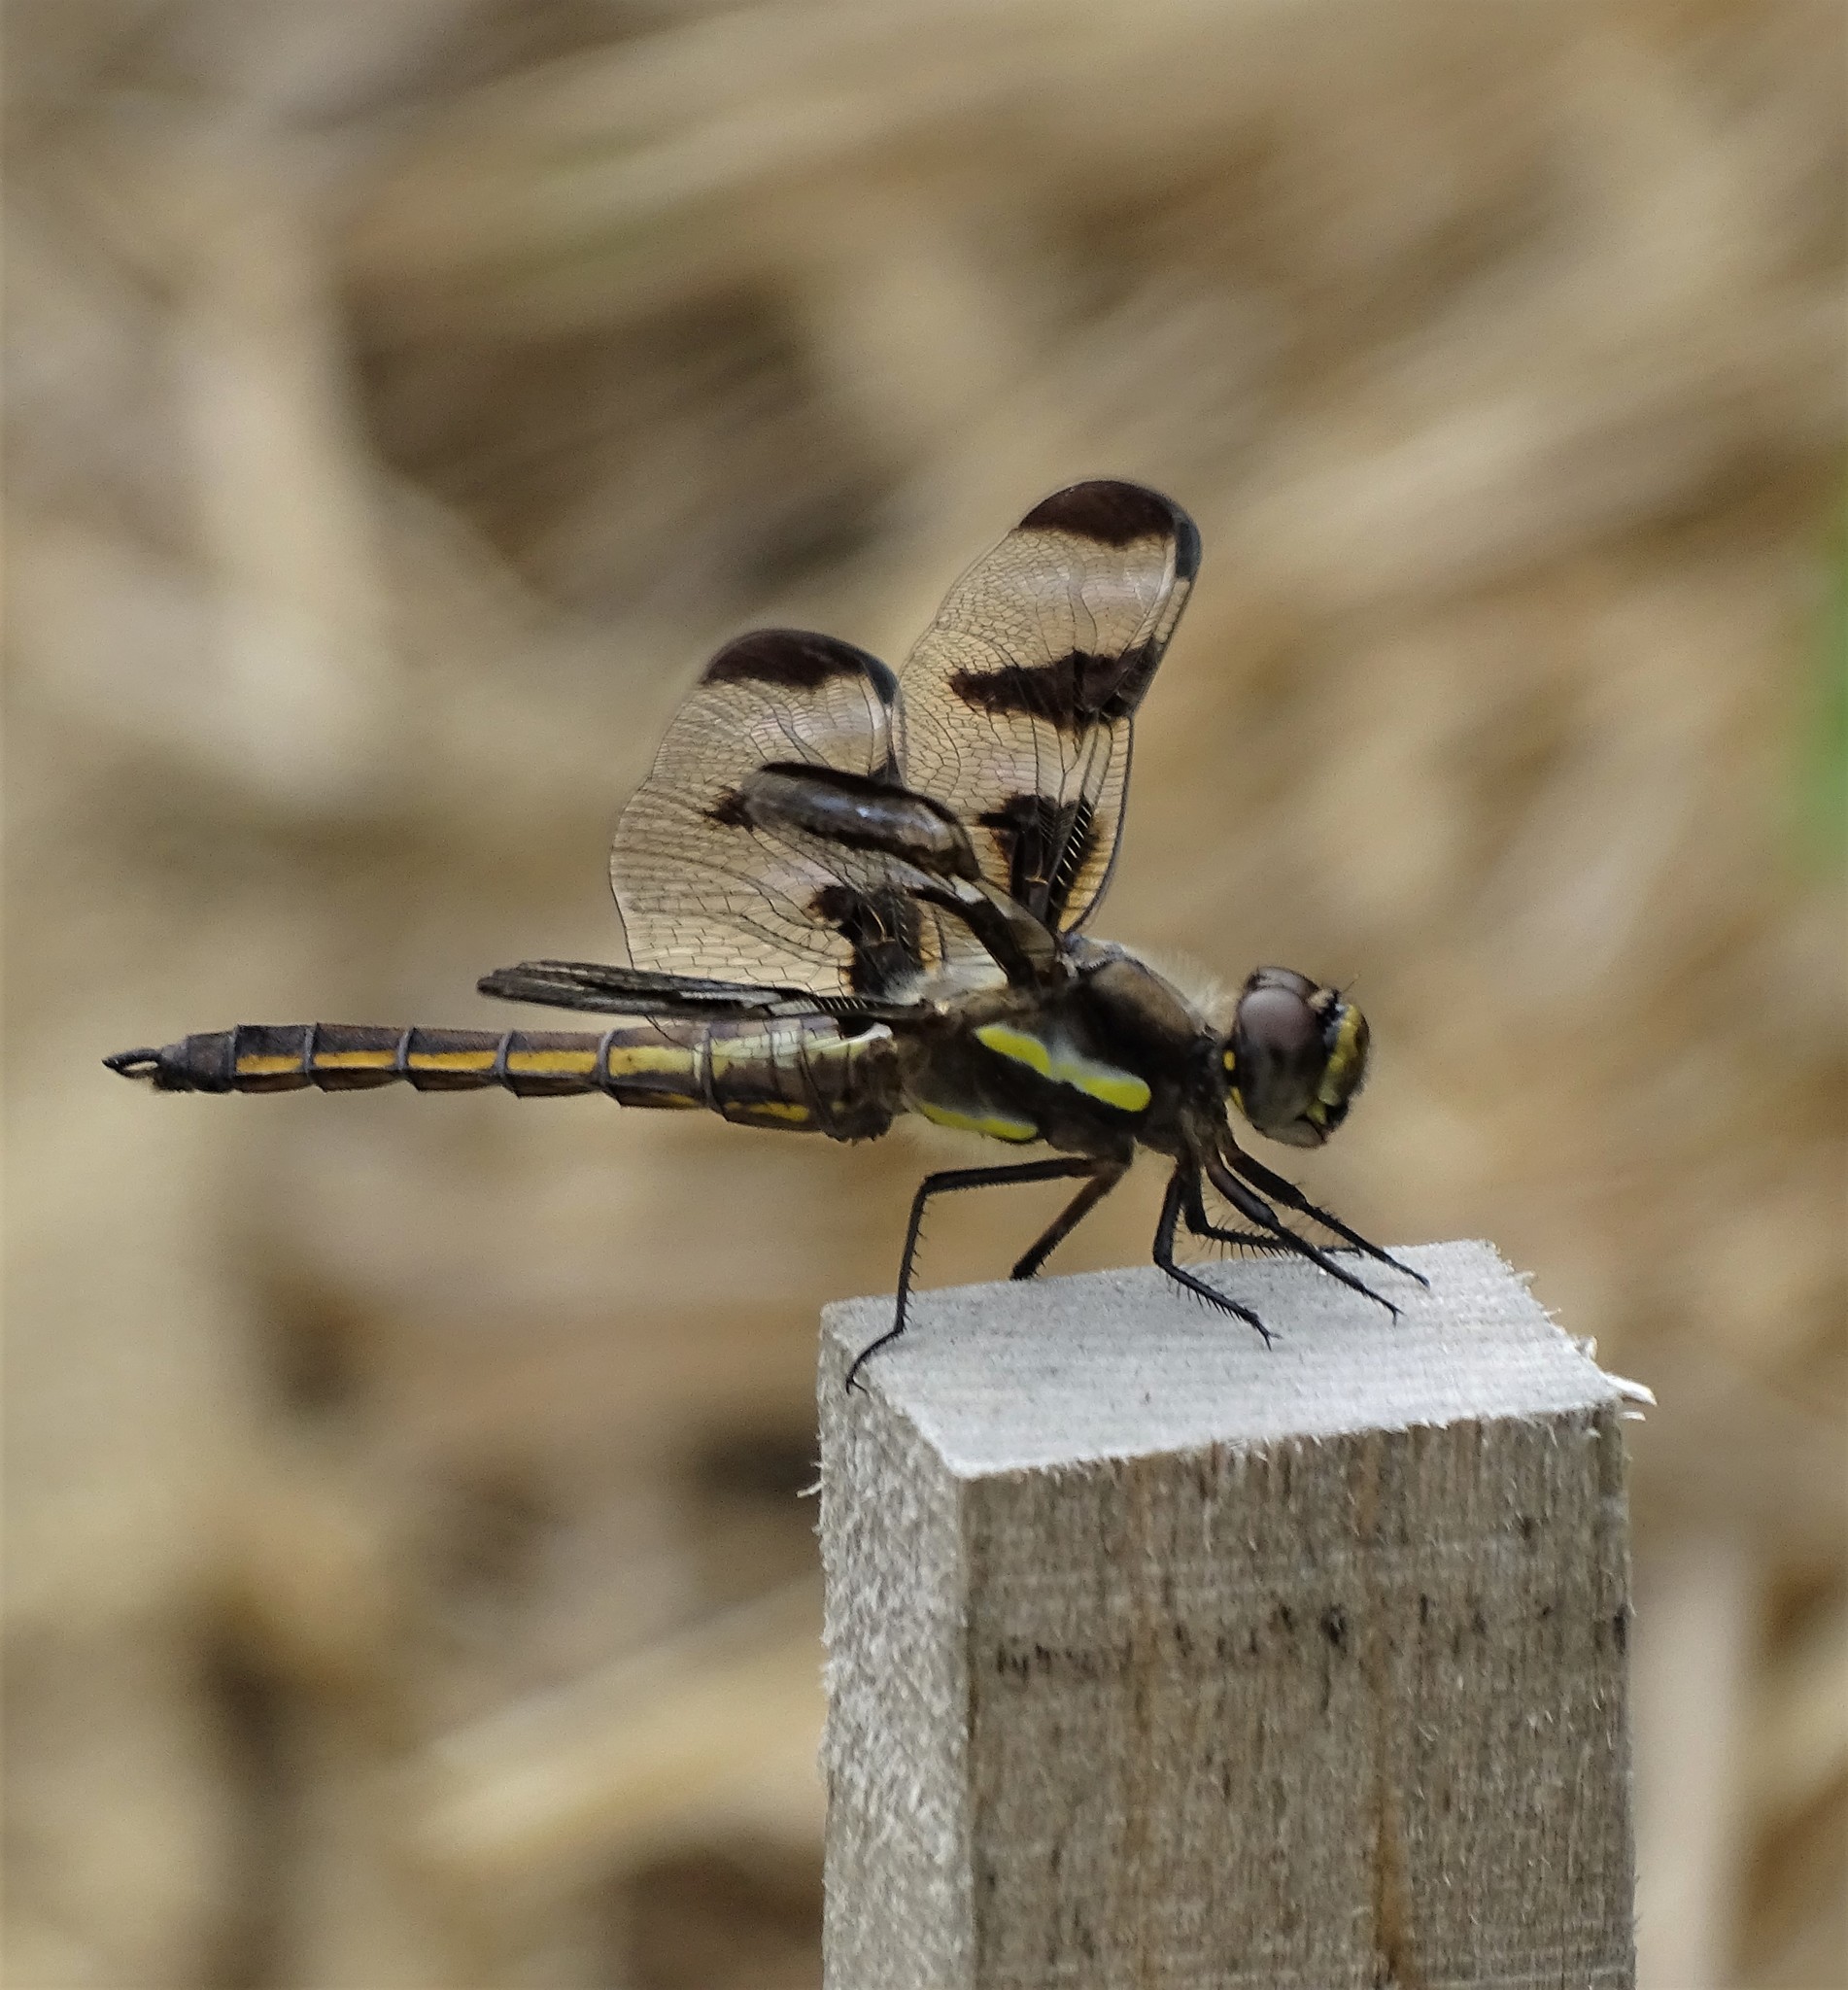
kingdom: Animalia
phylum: Arthropoda
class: Insecta
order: Odonata
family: Libellulidae
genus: Libellula
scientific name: Libellula pulchella
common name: Twelve-spotted skimmer
